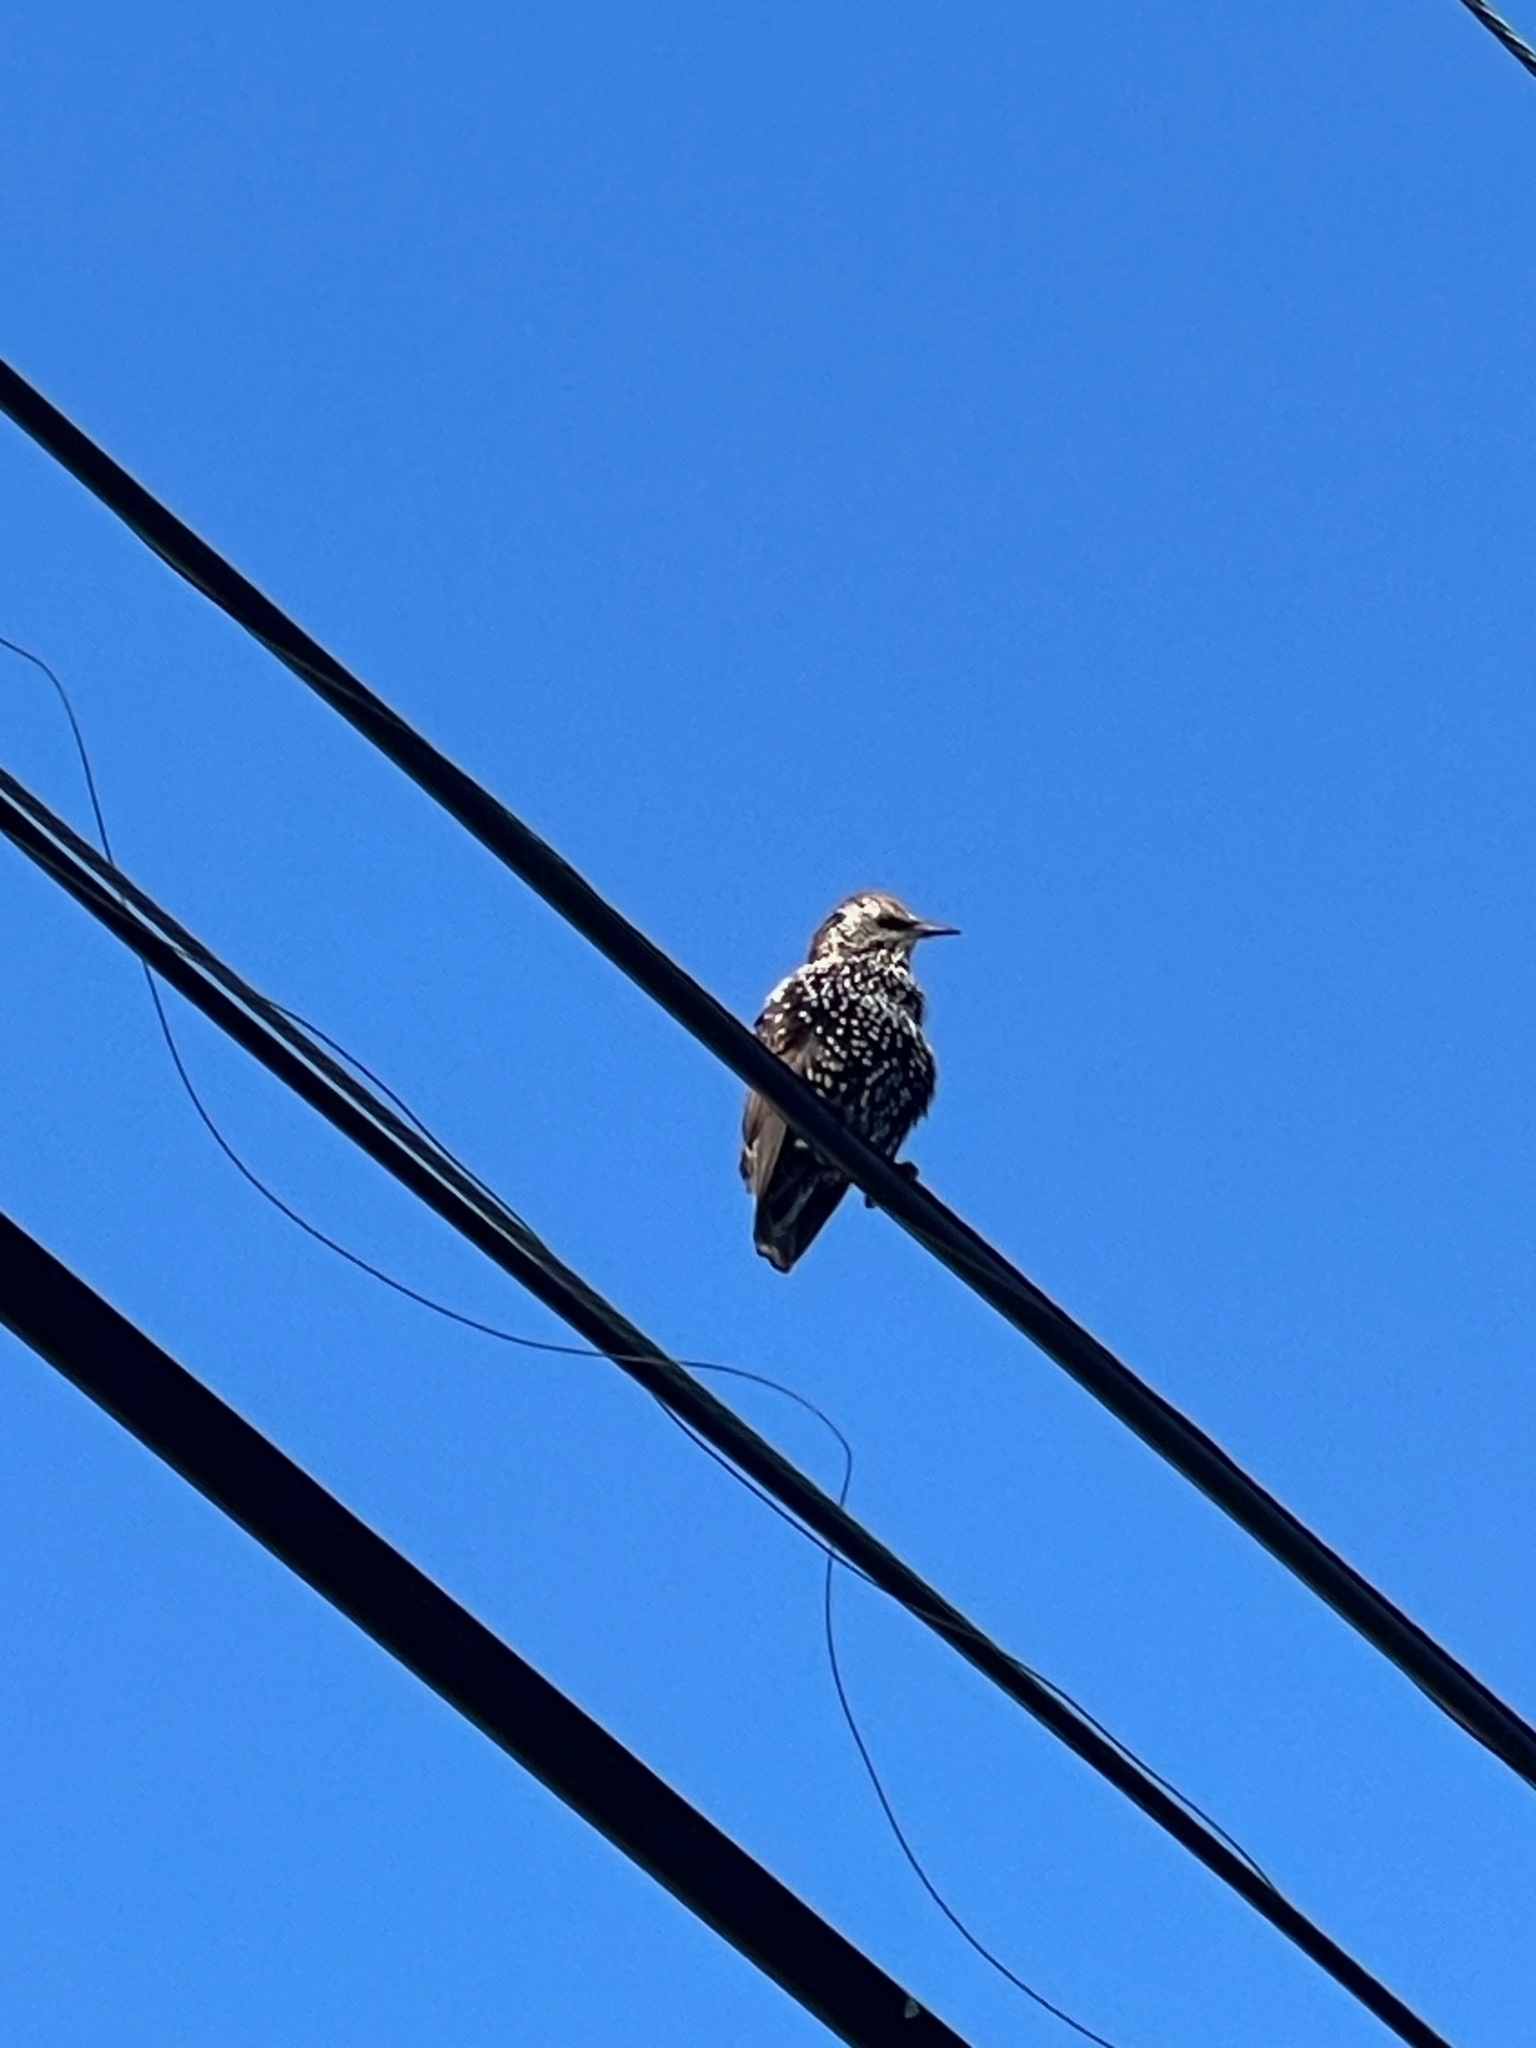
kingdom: Animalia
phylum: Chordata
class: Aves
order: Passeriformes
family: Sturnidae
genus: Sturnus
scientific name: Sturnus vulgaris
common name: Common starling
